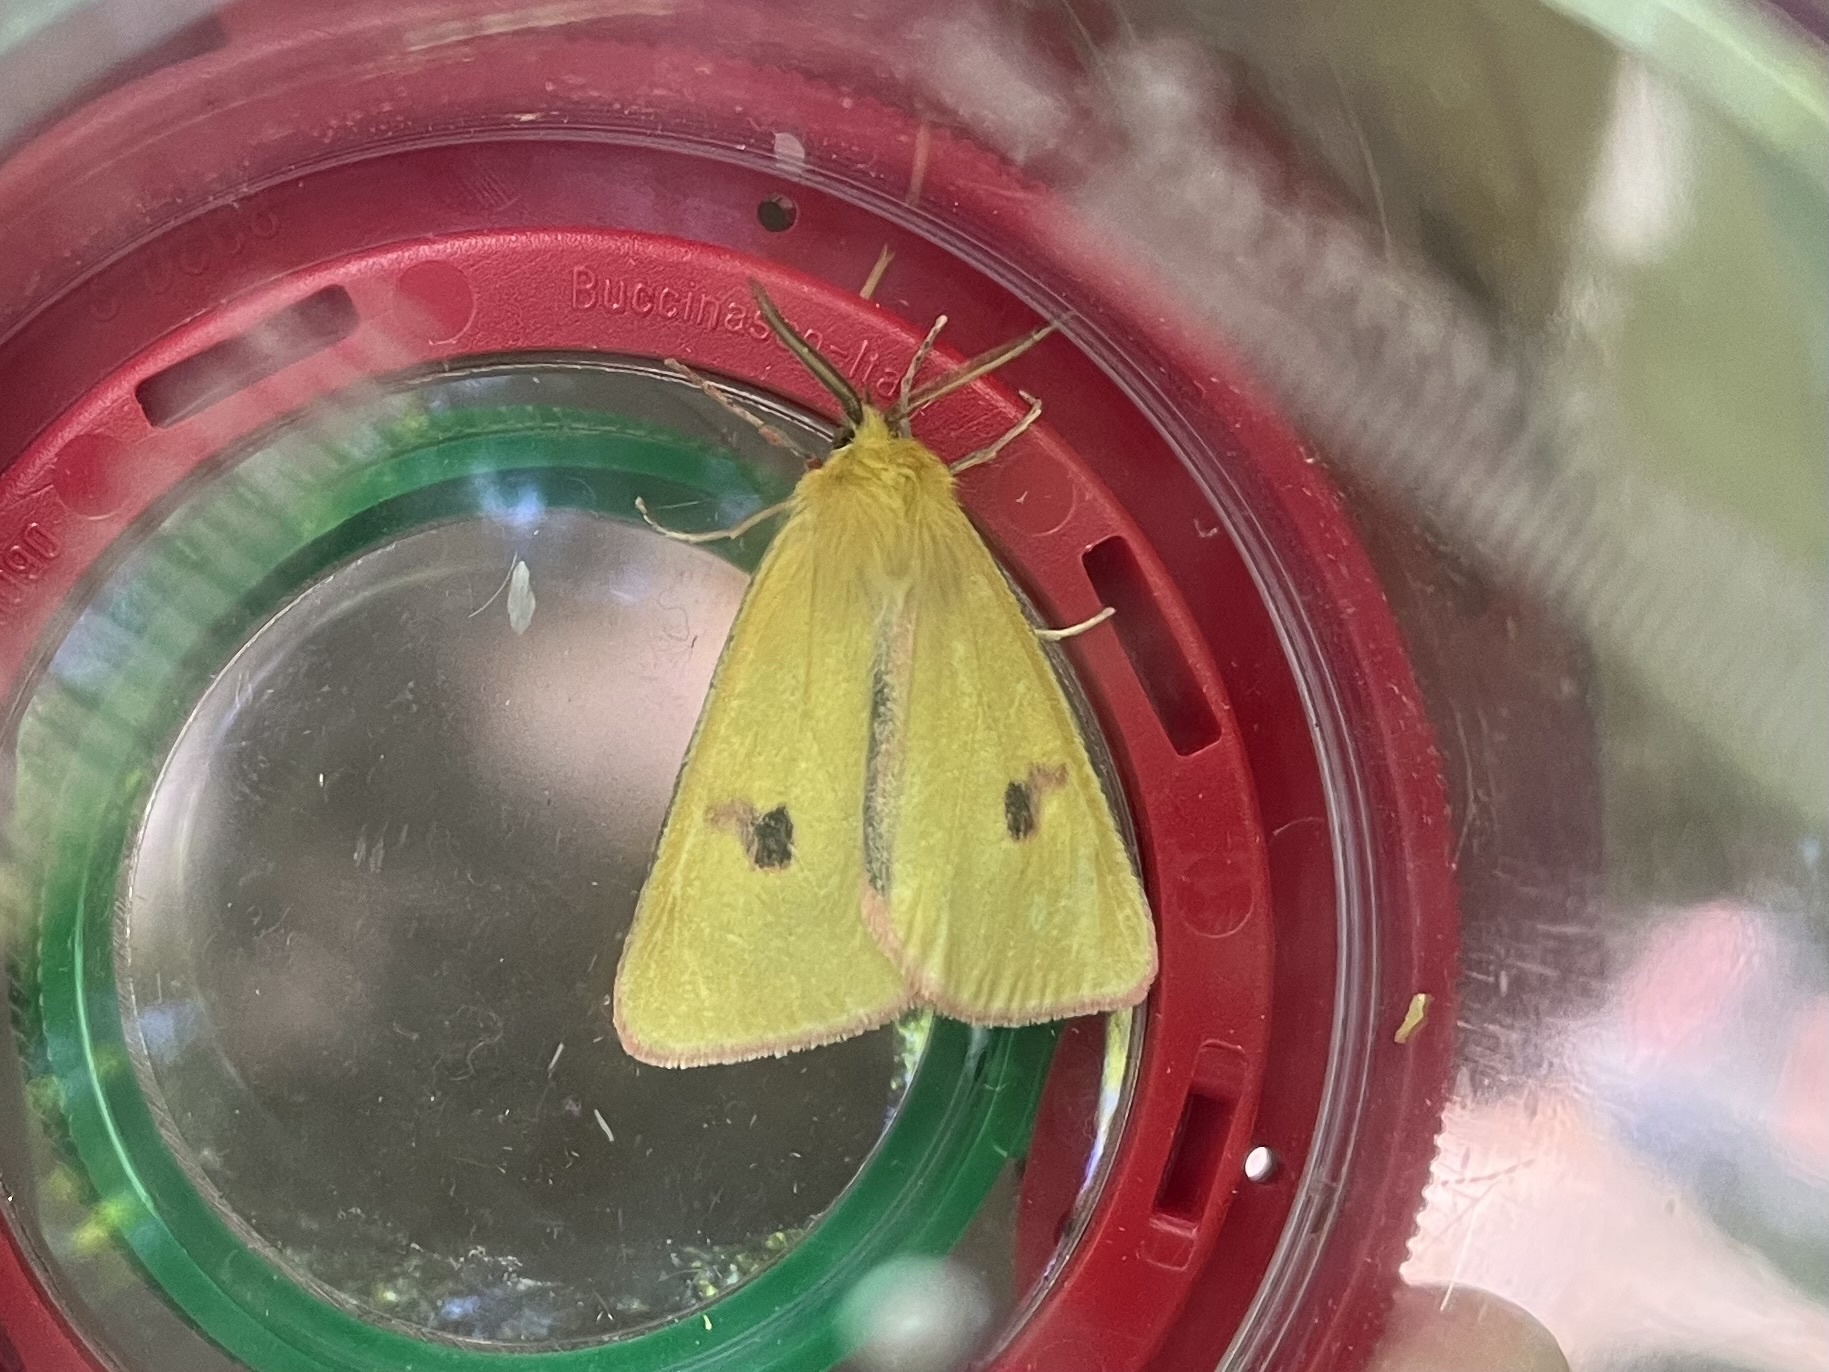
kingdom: Animalia
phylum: Arthropoda
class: Insecta
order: Lepidoptera
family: Erebidae
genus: Diacrisia
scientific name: Diacrisia sannio
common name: Clouded buff
